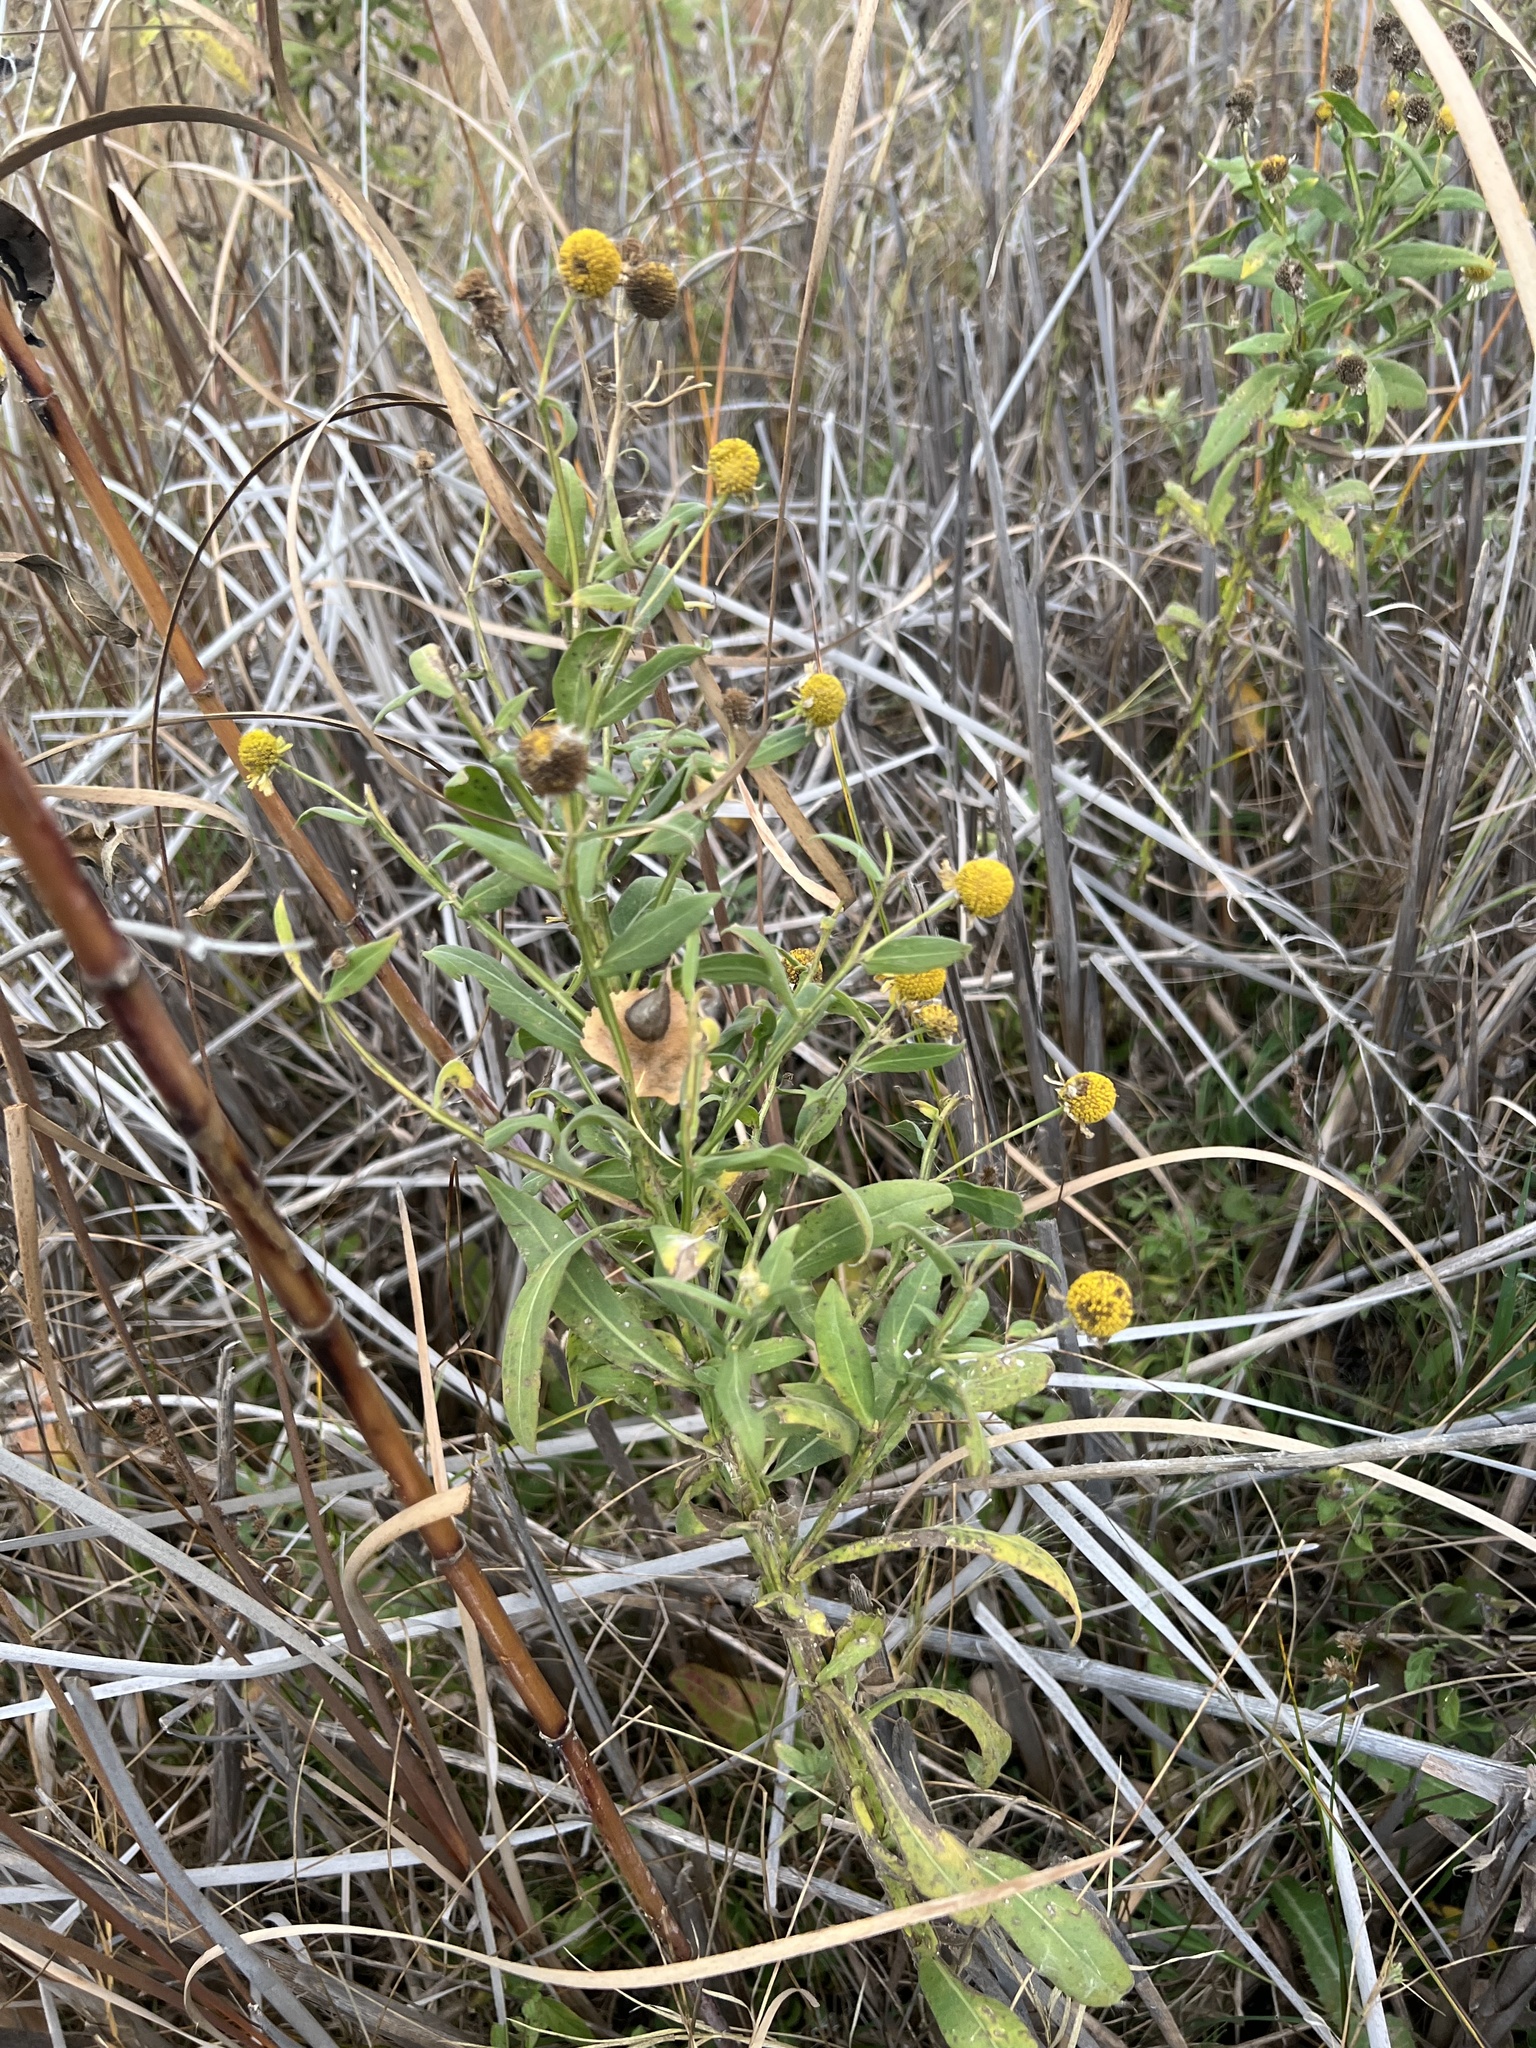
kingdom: Plantae
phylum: Tracheophyta
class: Magnoliopsida
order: Asterales
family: Asteraceae
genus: Helenium
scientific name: Helenium autumnale
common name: Sneezeweed
